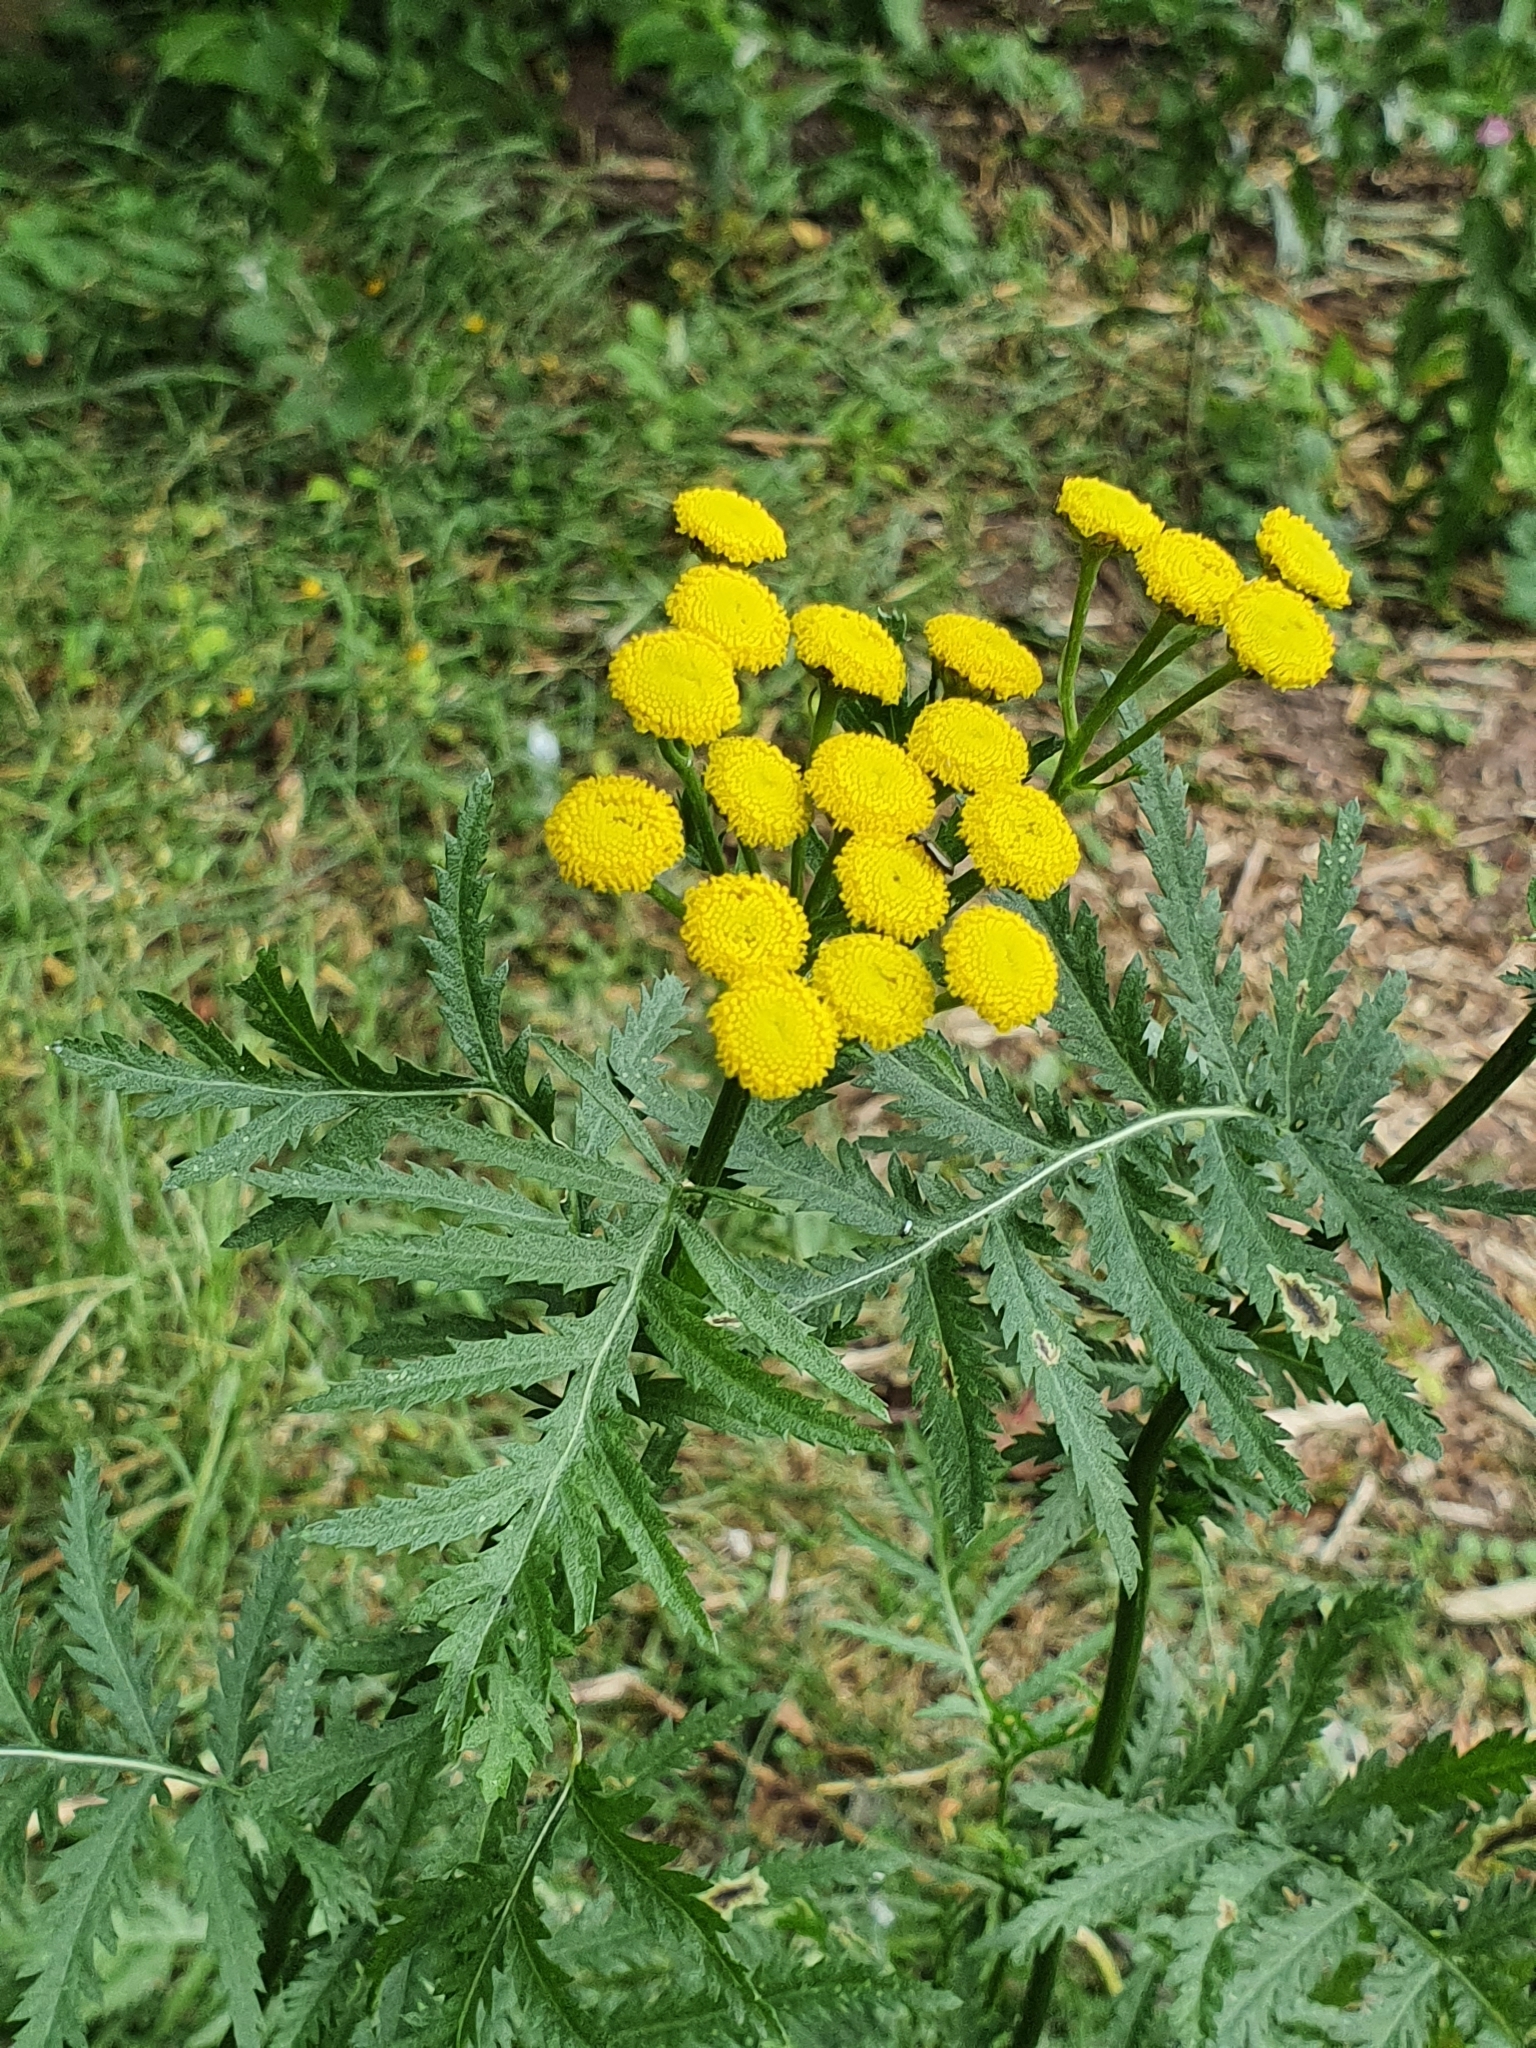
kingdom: Plantae
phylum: Tracheophyta
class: Magnoliopsida
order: Asterales
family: Asteraceae
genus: Tanacetum
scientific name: Tanacetum vulgare
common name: Common tansy
